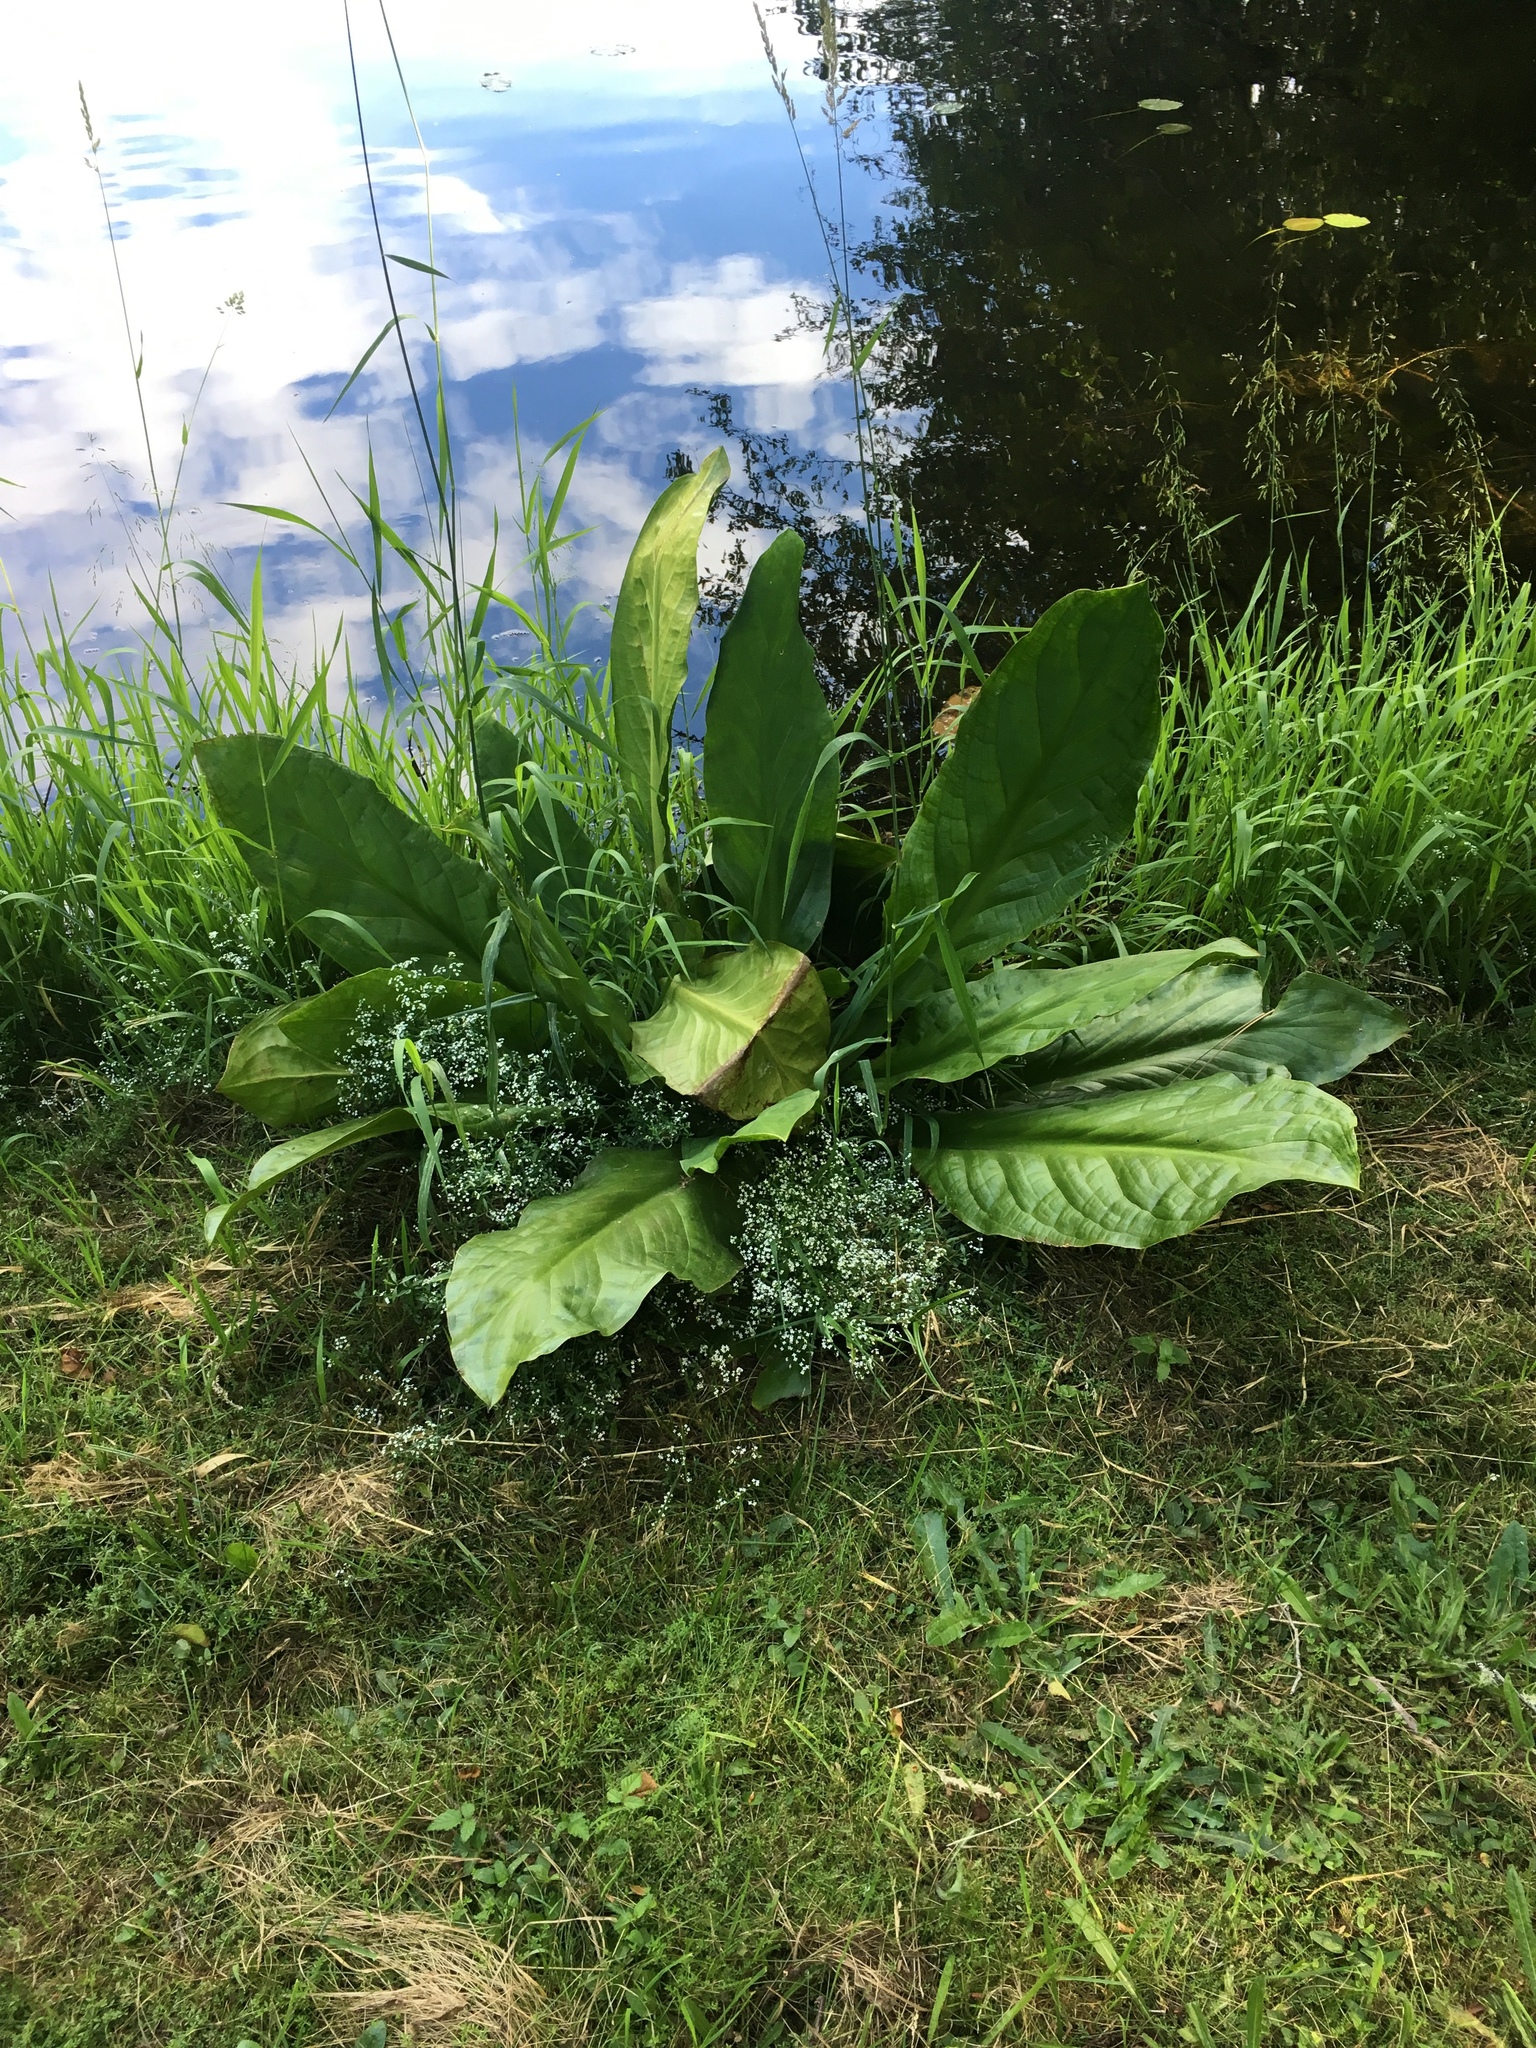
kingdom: Plantae
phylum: Tracheophyta
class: Liliopsida
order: Alismatales
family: Araceae
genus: Lysichiton
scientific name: Lysichiton americanus
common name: American skunk cabbage
